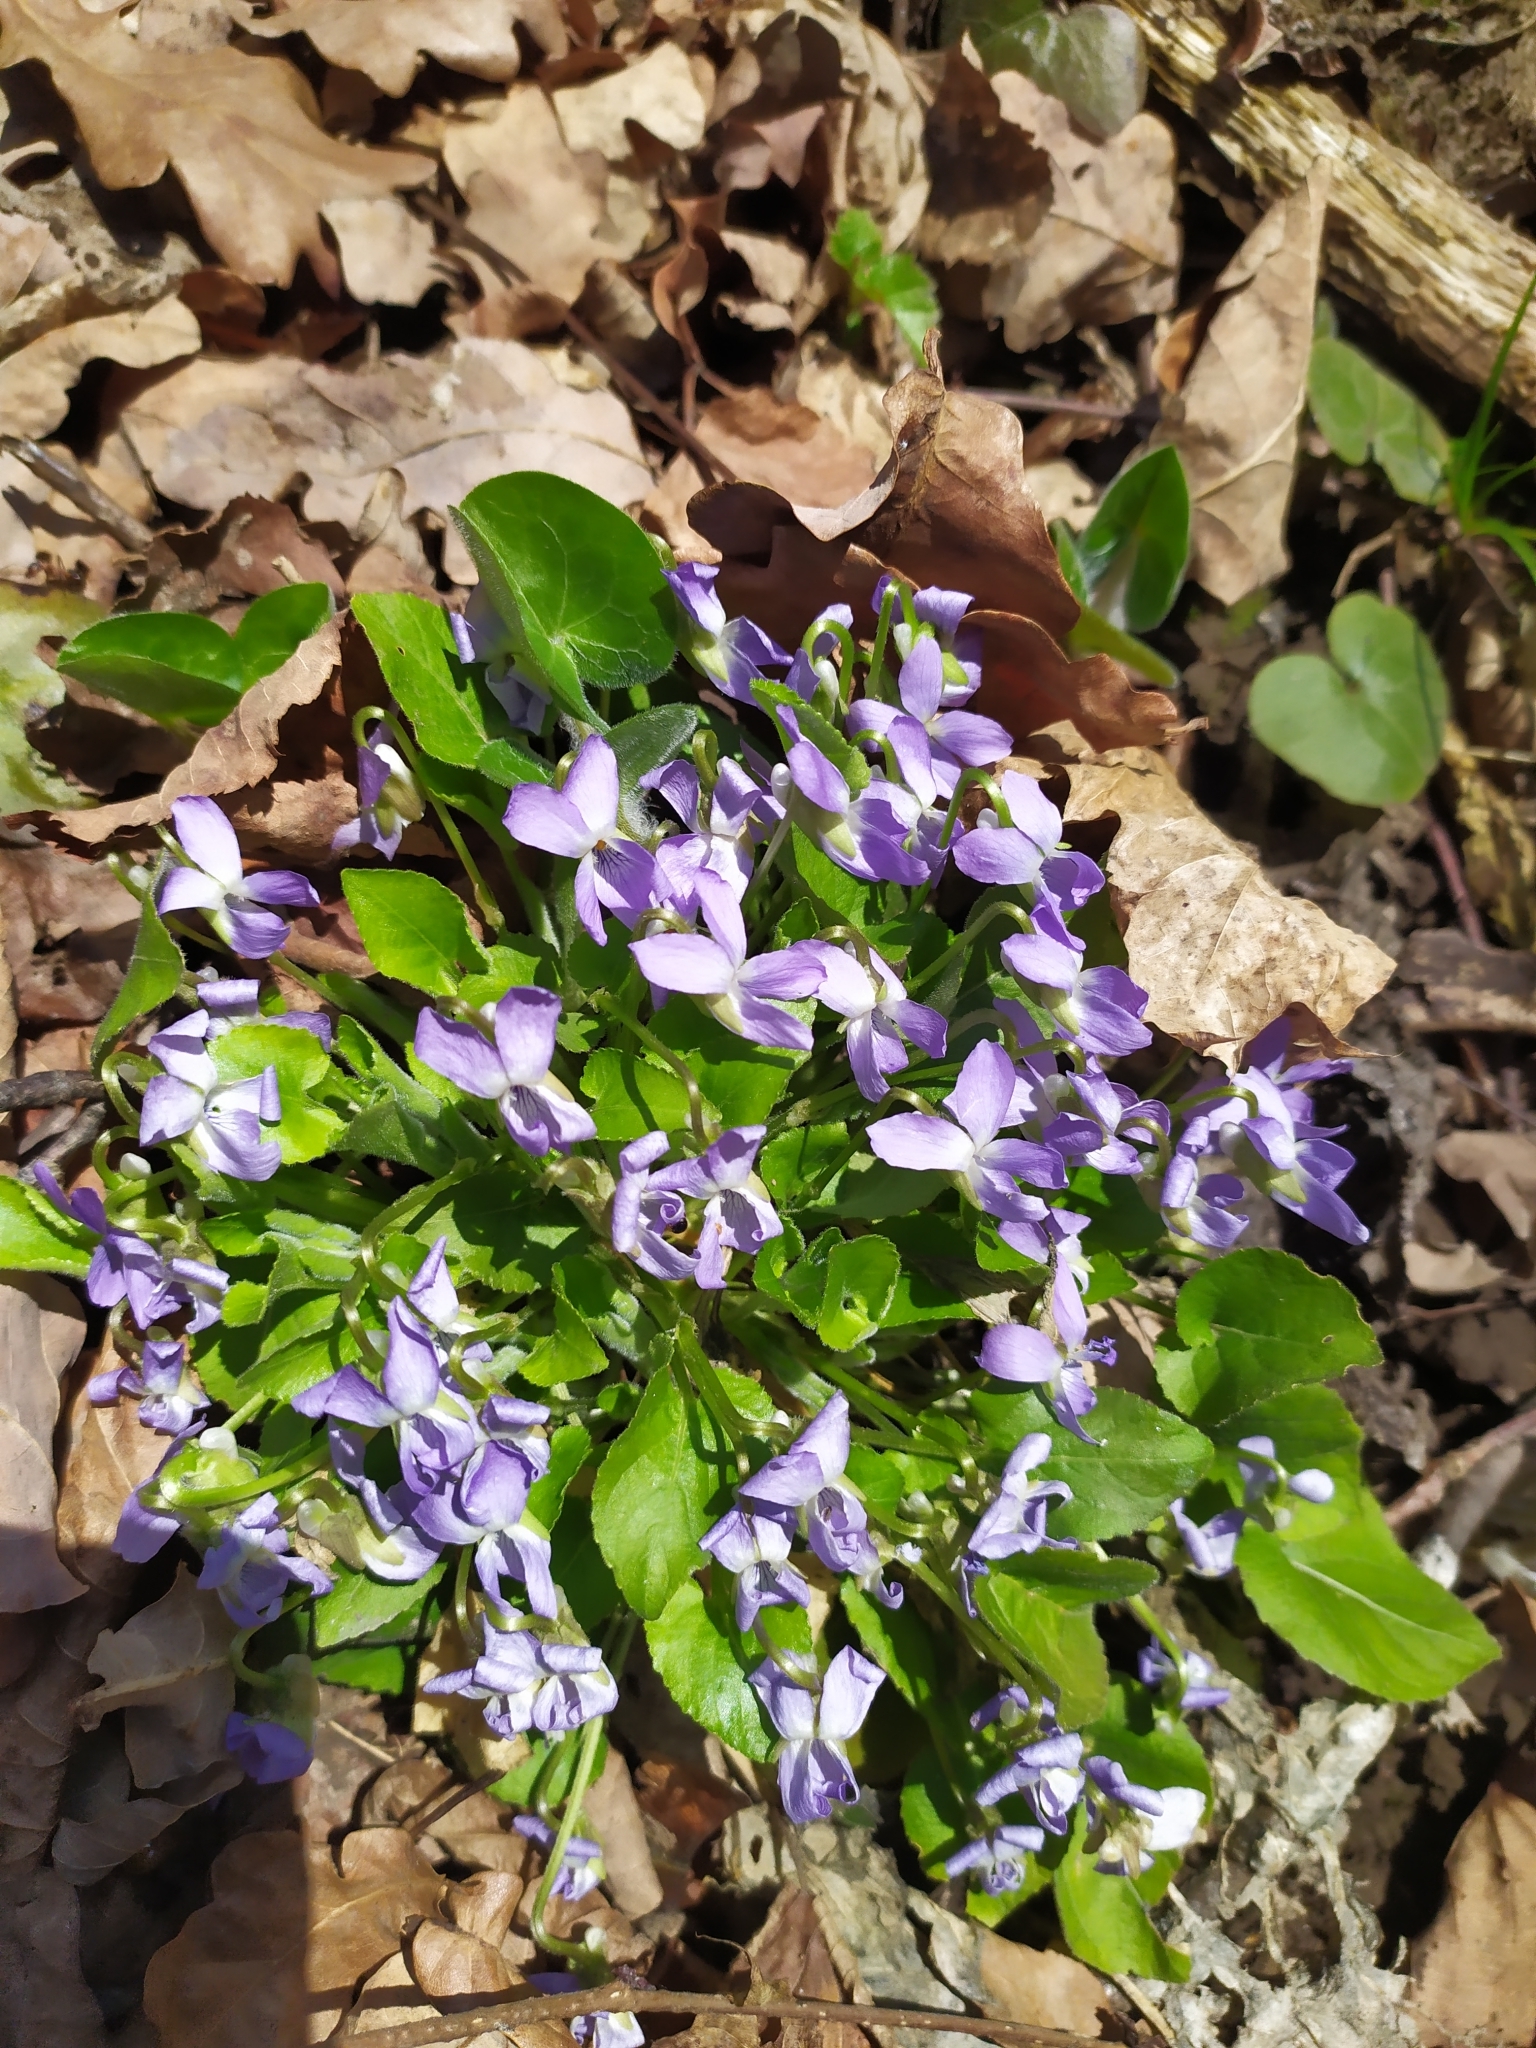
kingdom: Plantae
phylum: Tracheophyta
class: Magnoliopsida
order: Malpighiales
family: Violaceae
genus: Viola
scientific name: Viola collina
